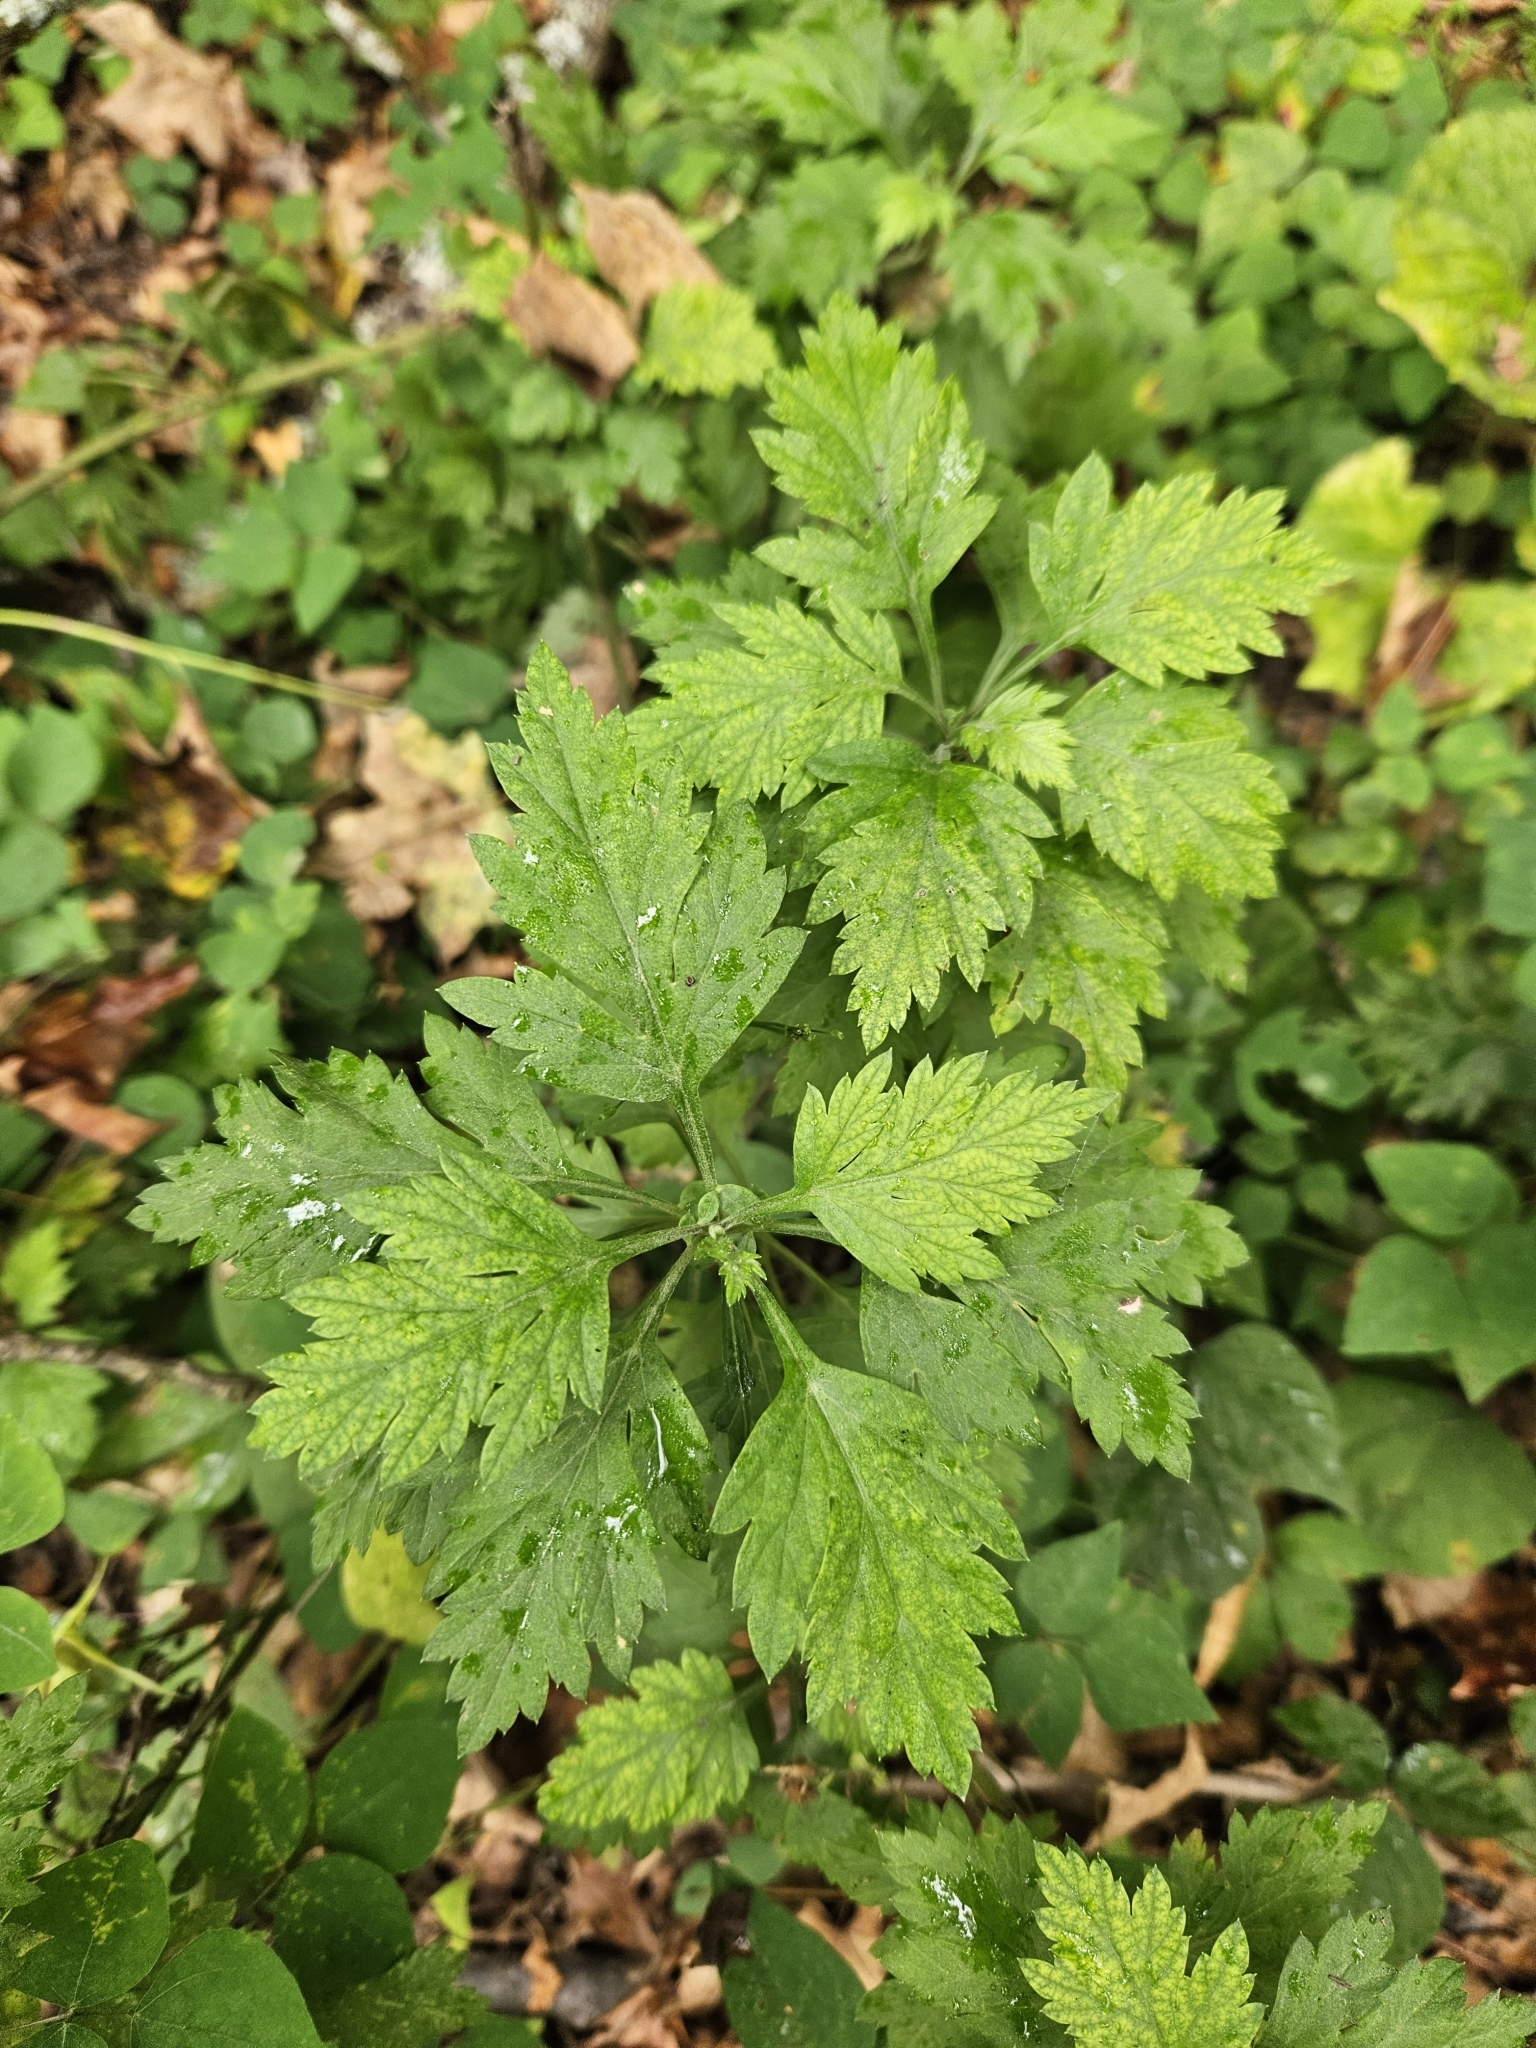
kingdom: Plantae
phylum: Tracheophyta
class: Magnoliopsida
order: Asterales
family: Asteraceae
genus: Artemisia
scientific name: Artemisia vulgaris
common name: Mugwort
